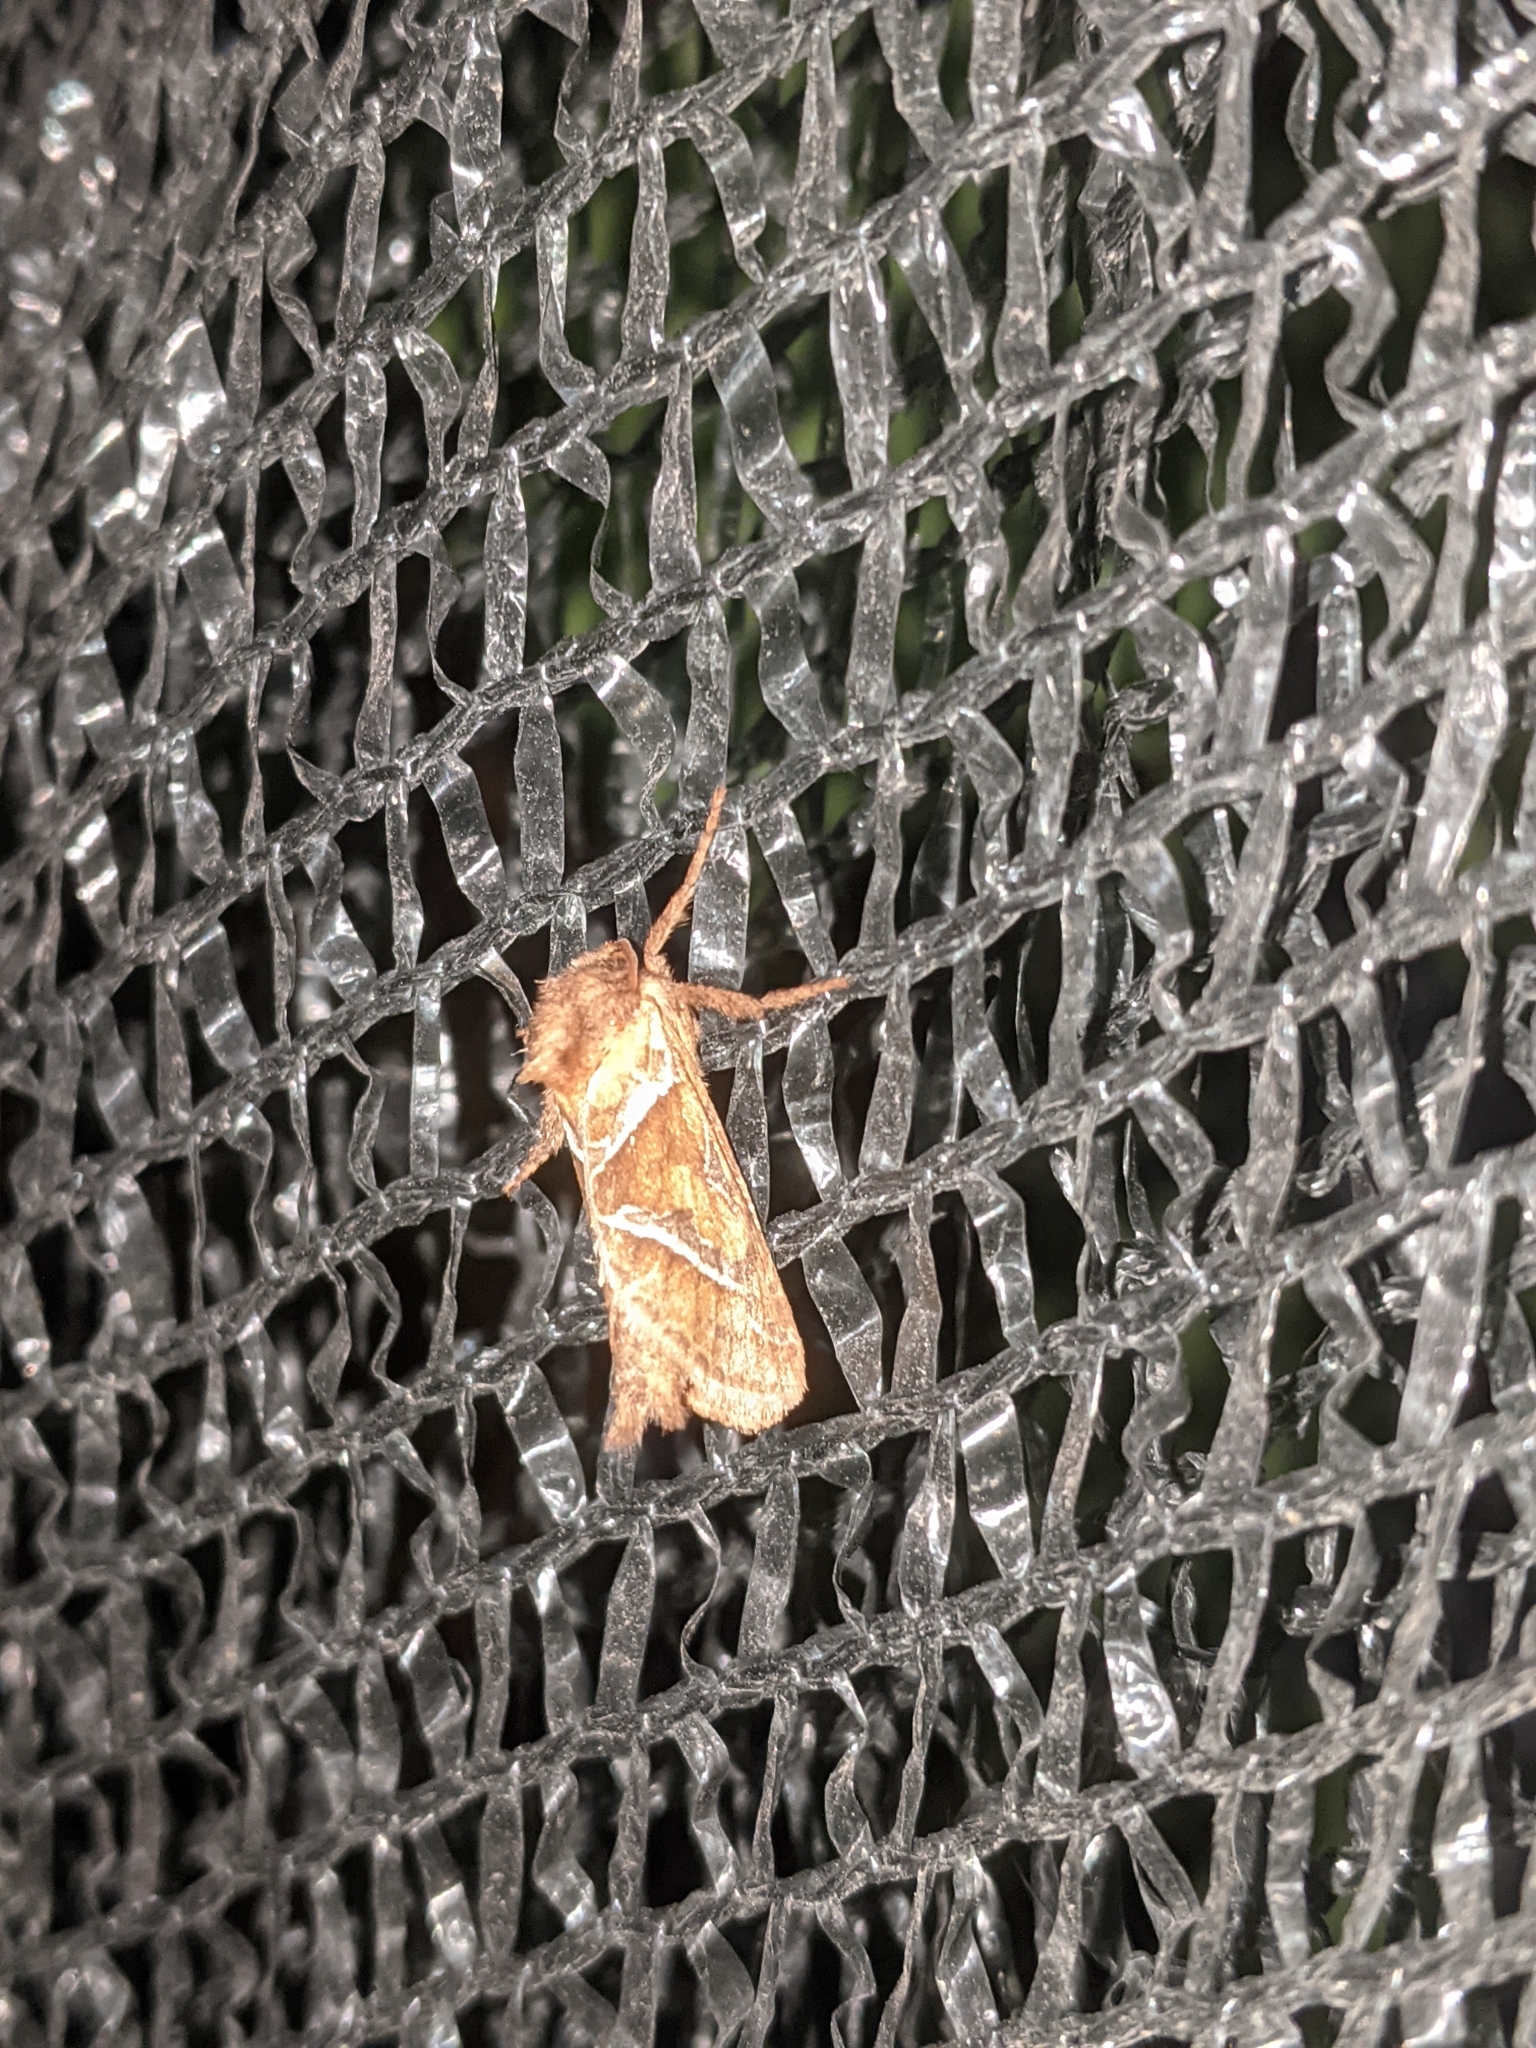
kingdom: Animalia
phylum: Arthropoda
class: Insecta
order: Lepidoptera
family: Hepialidae
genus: Triodia
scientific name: Triodia sylvina
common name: Orange swift
